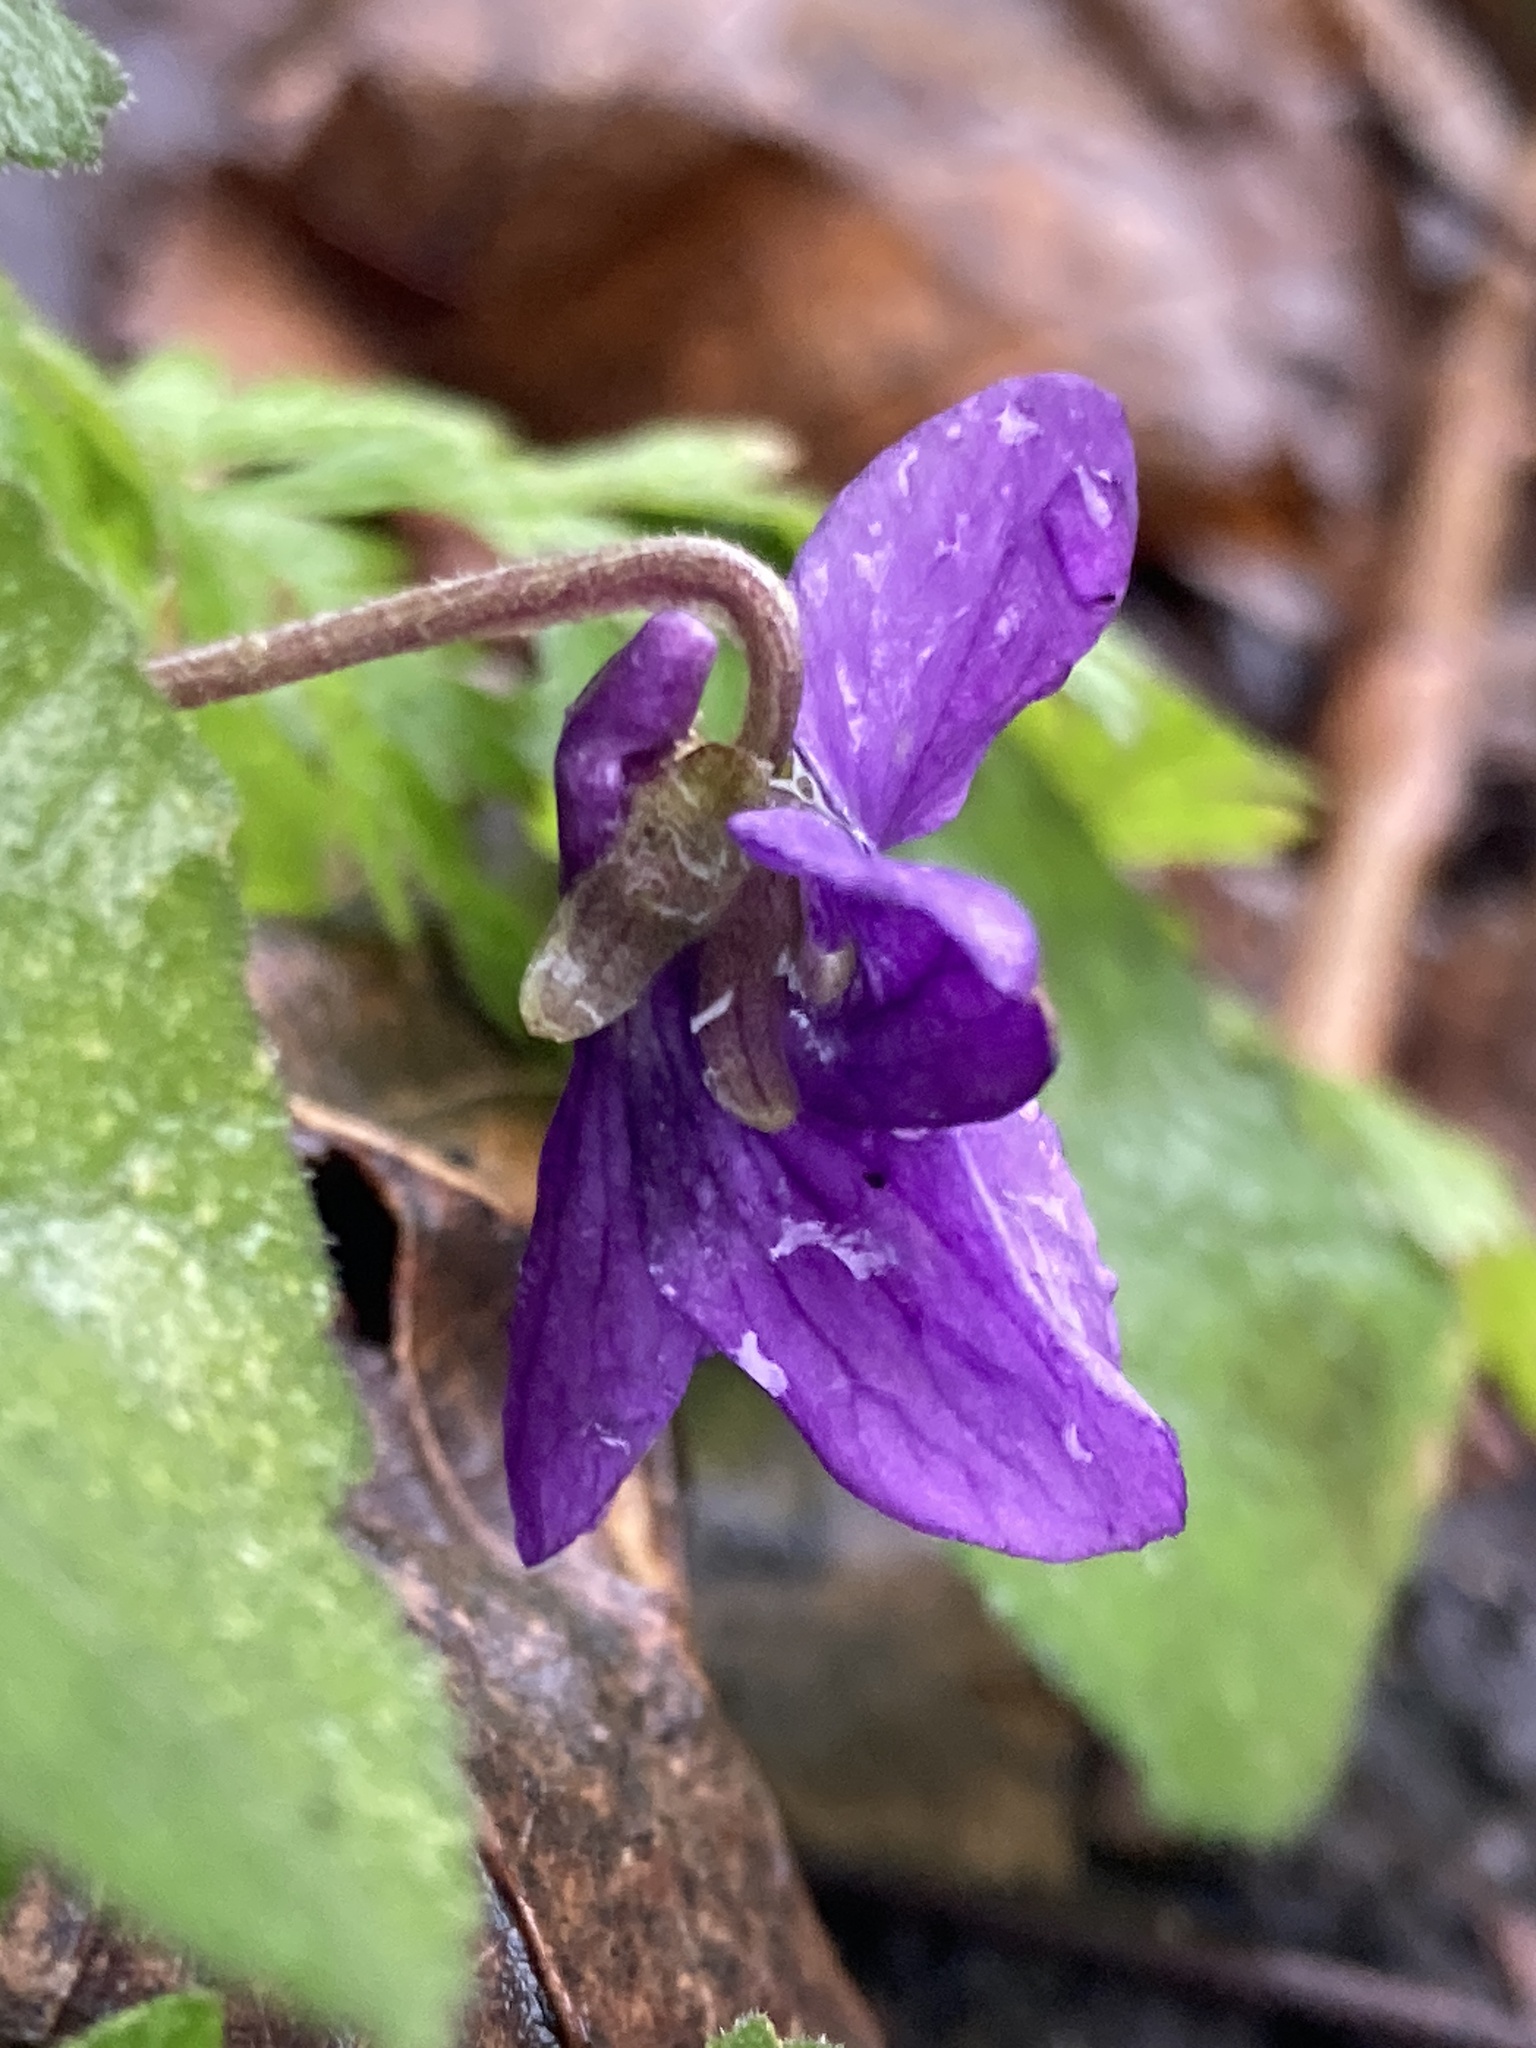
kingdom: Plantae
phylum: Tracheophyta
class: Magnoliopsida
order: Malpighiales
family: Violaceae
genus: Viola
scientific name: Viola odorata
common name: Sweet violet
